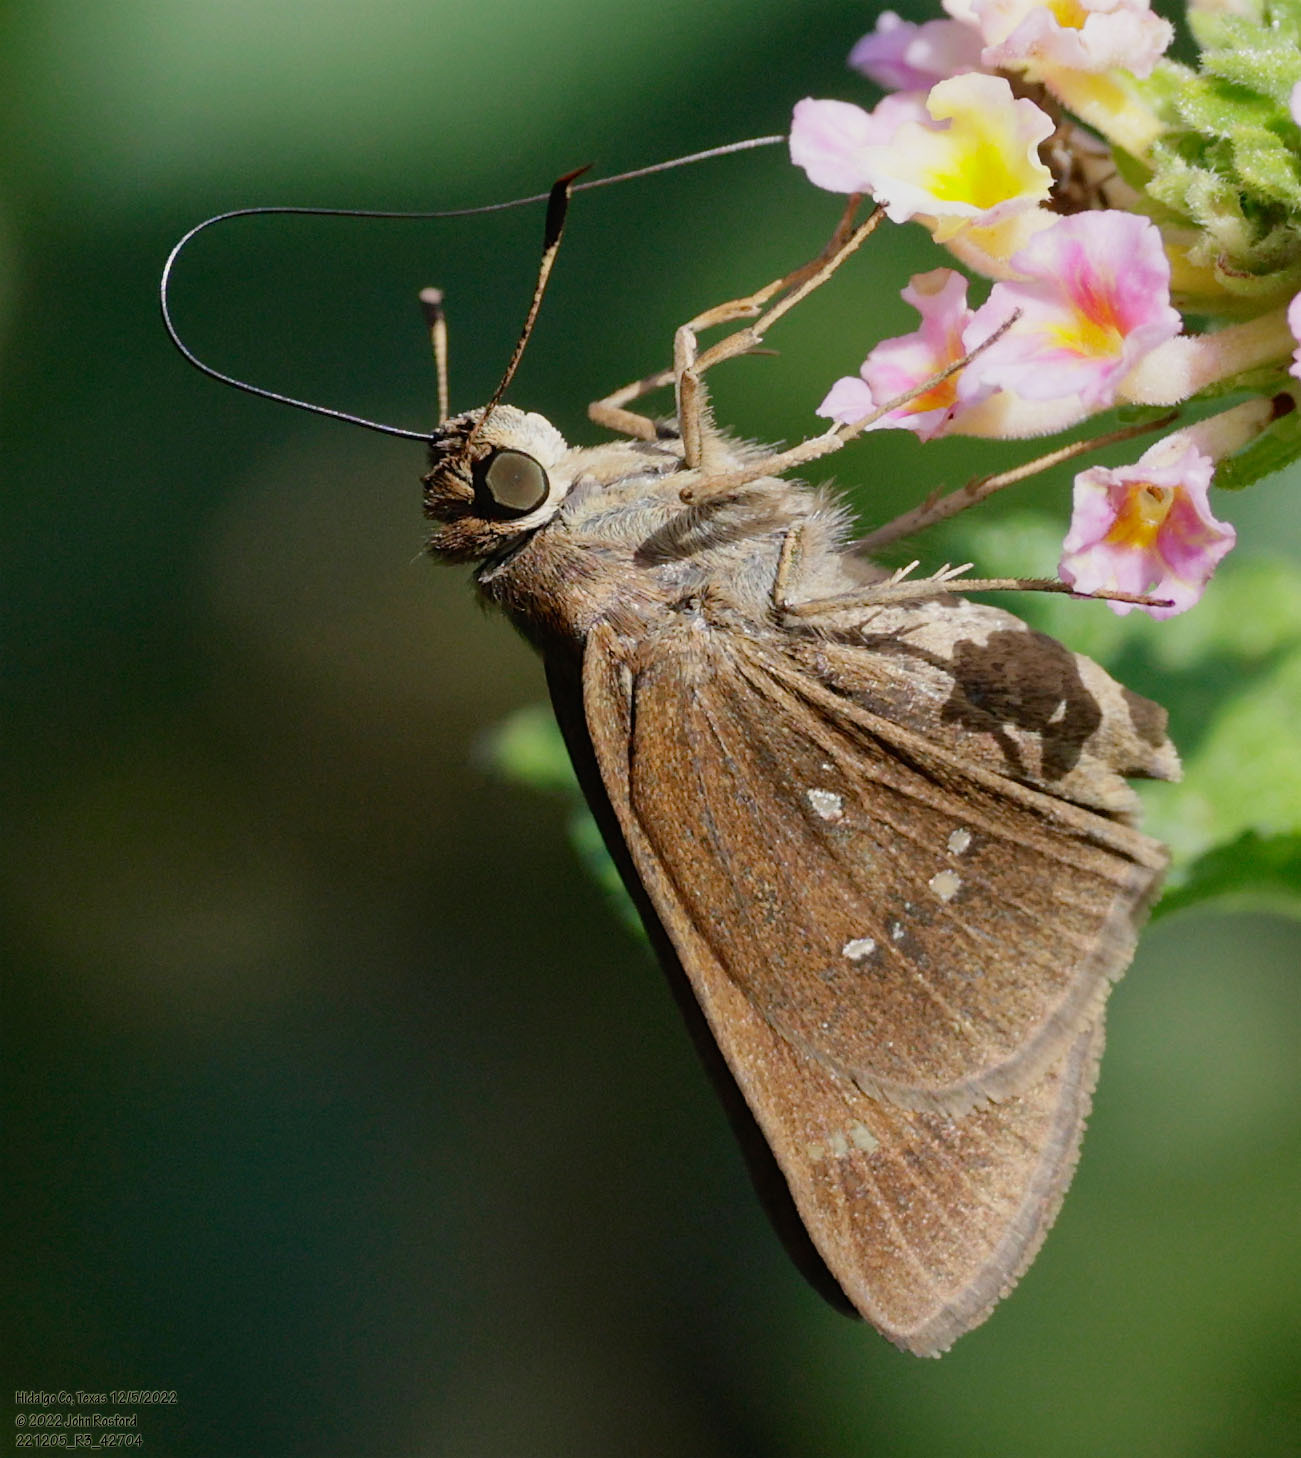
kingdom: Animalia
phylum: Arthropoda
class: Insecta
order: Lepidoptera
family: Hesperiidae
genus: Decinea
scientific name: Decinea percosius
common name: Double-dotted skipper
